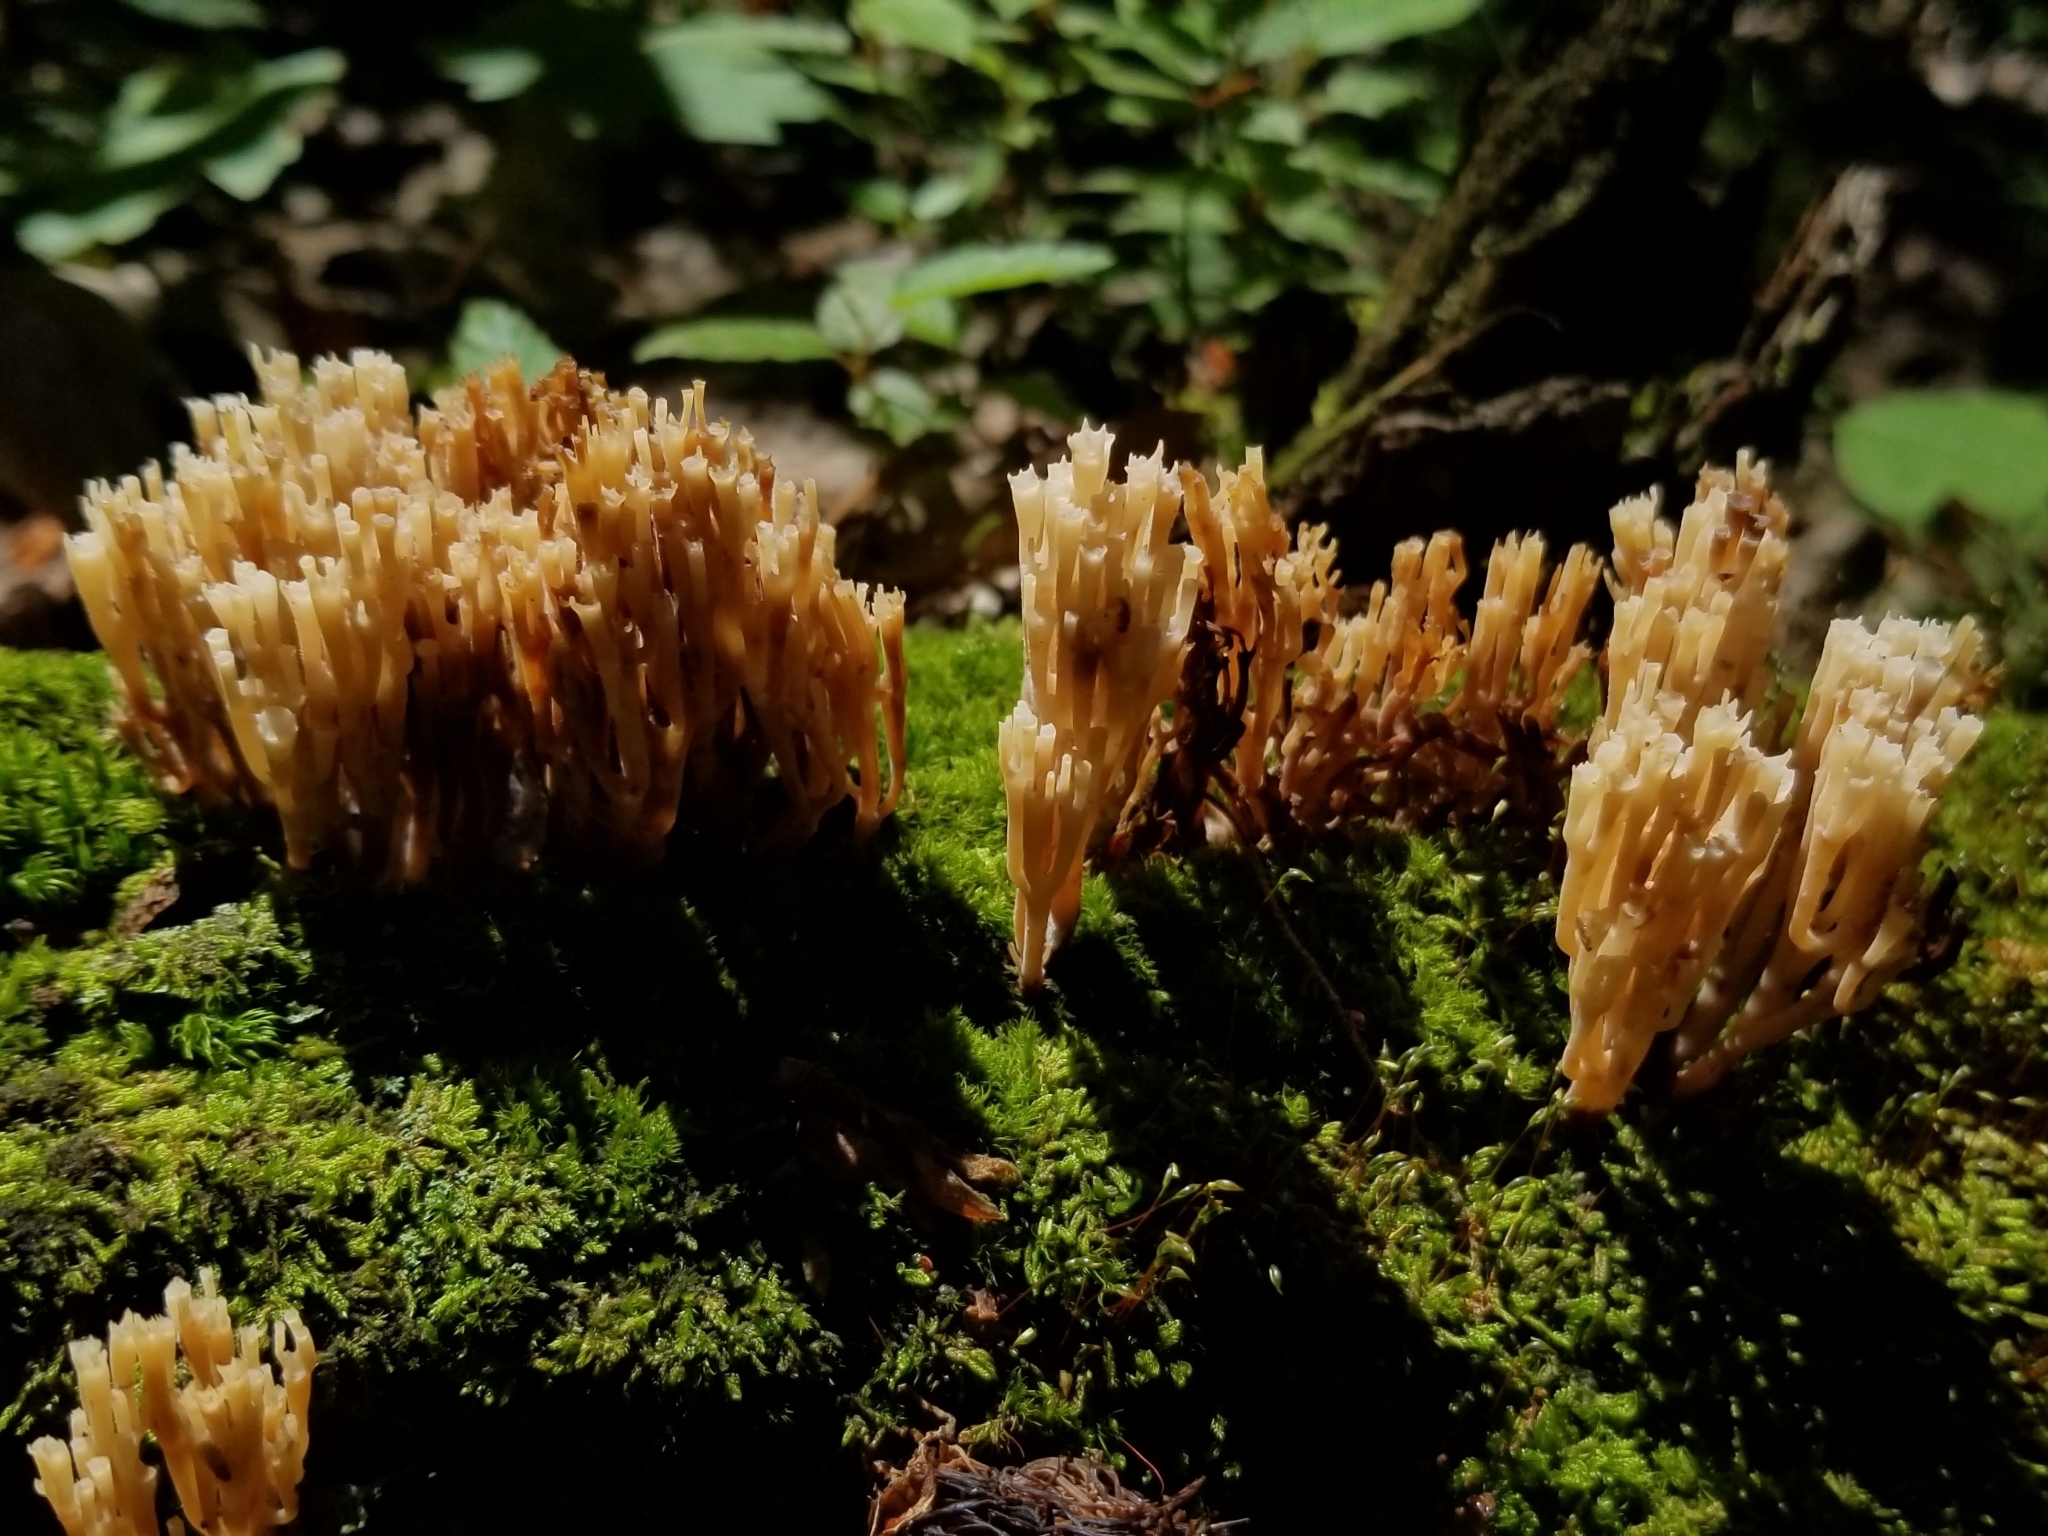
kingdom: Fungi
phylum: Basidiomycota
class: Agaricomycetes
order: Russulales
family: Auriscalpiaceae
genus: Artomyces
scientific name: Artomyces pyxidatus
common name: Crown-tipped coral fungus
